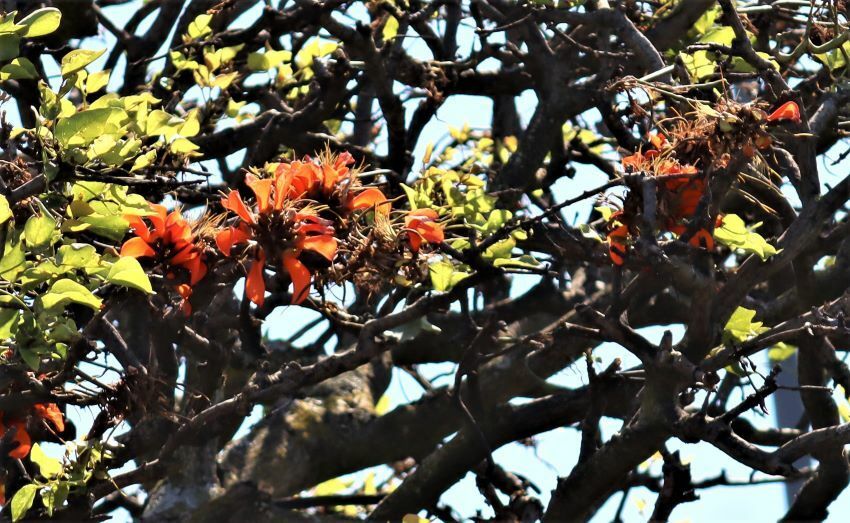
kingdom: Plantae
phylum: Tracheophyta
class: Magnoliopsida
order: Fabales
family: Fabaceae
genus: Erythrina
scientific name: Erythrina caffra
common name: Coast coral tree
